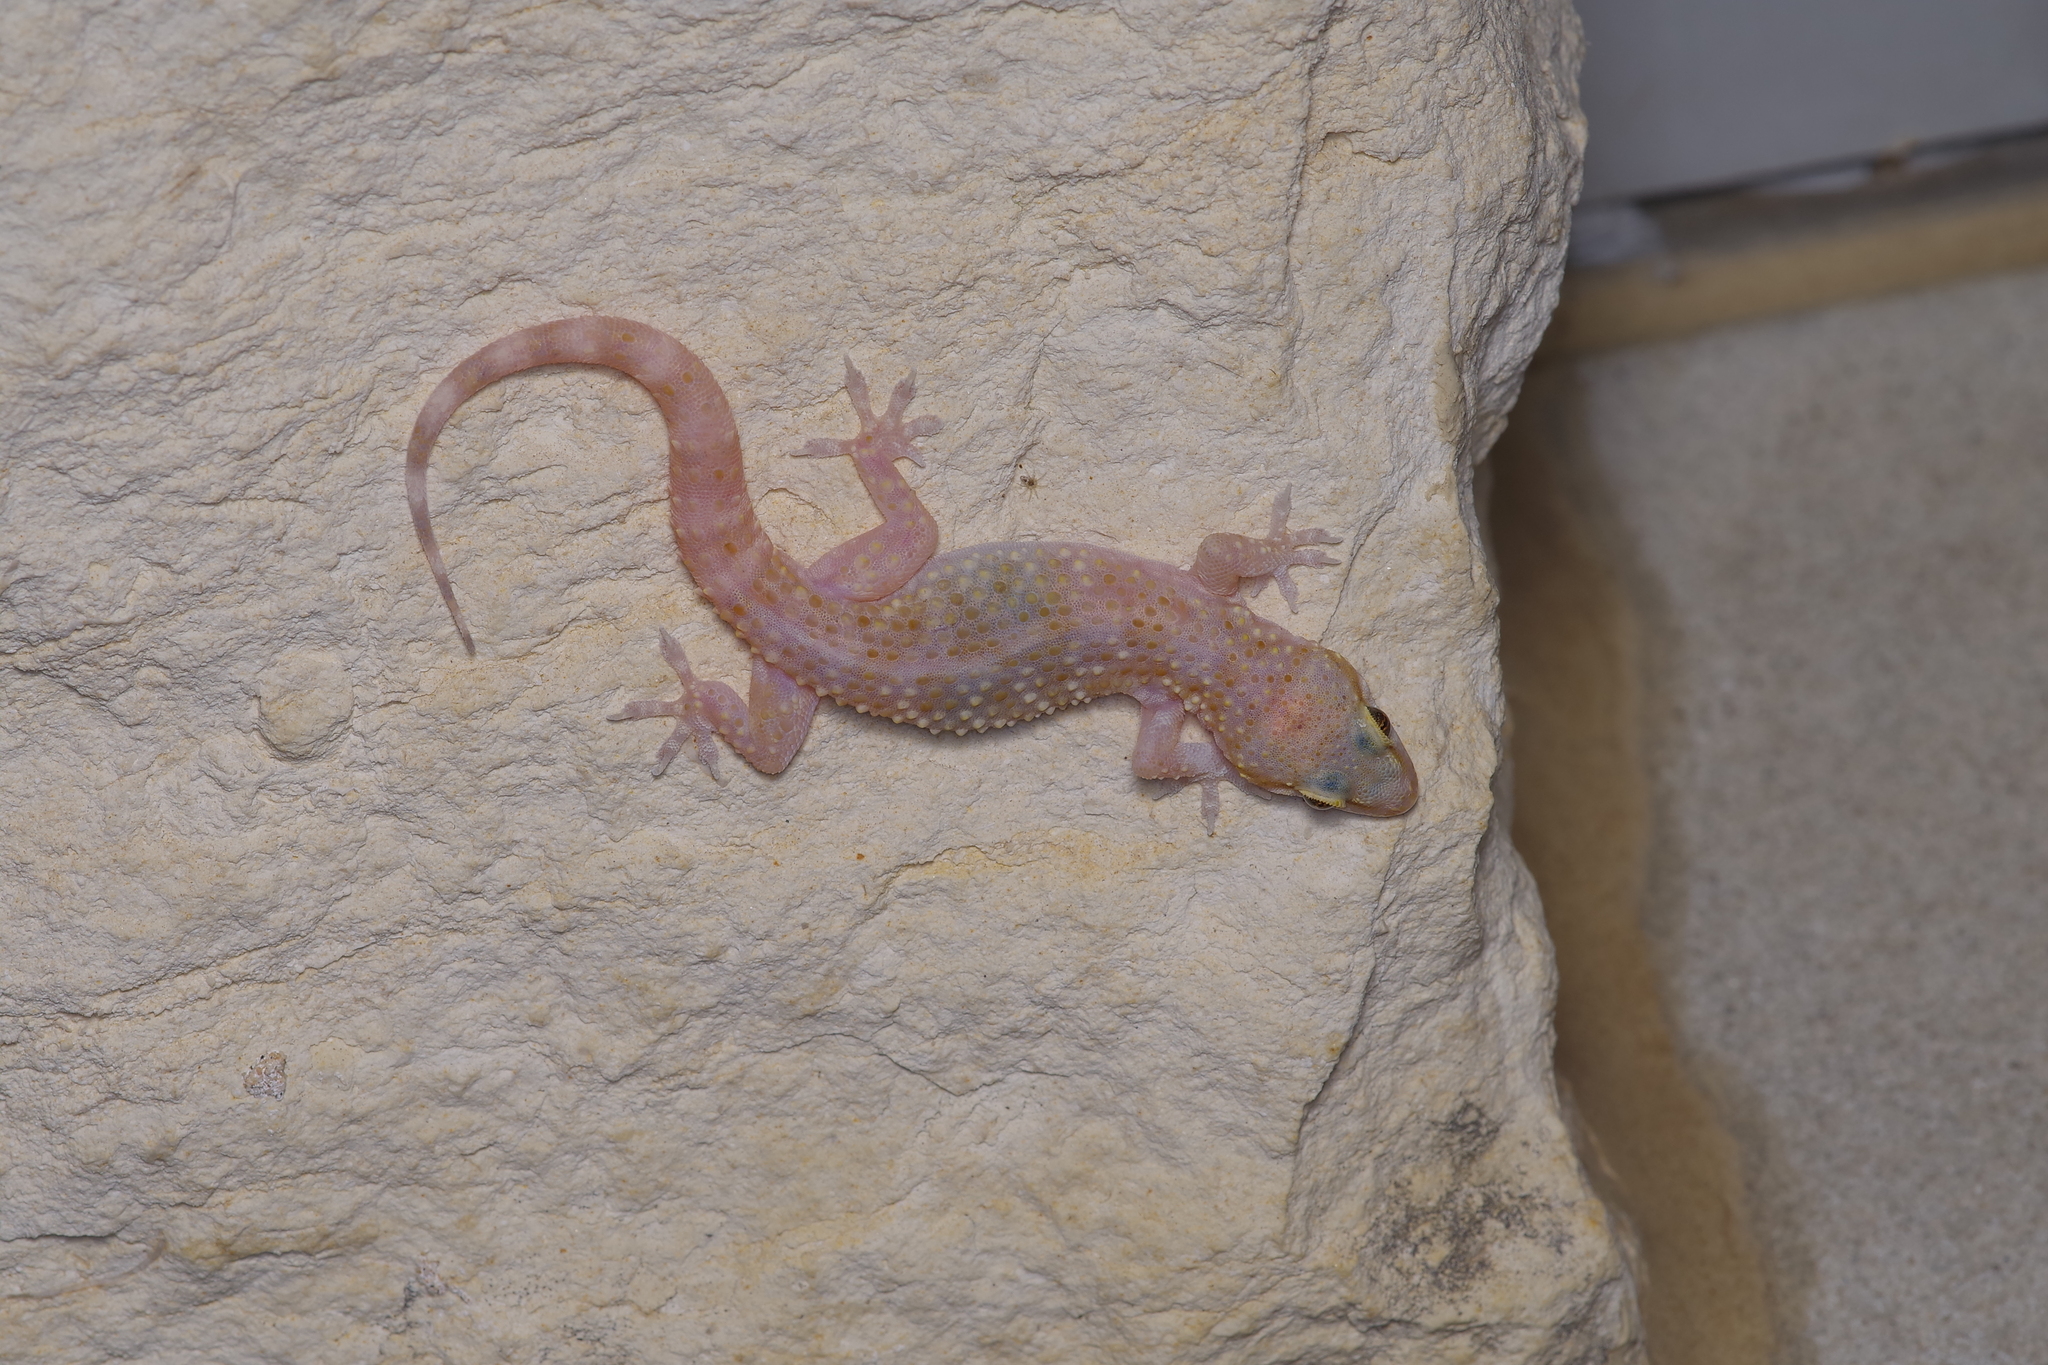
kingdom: Animalia
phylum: Chordata
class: Squamata
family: Gekkonidae
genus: Hemidactylus
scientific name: Hemidactylus turcicus
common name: Turkish gecko
